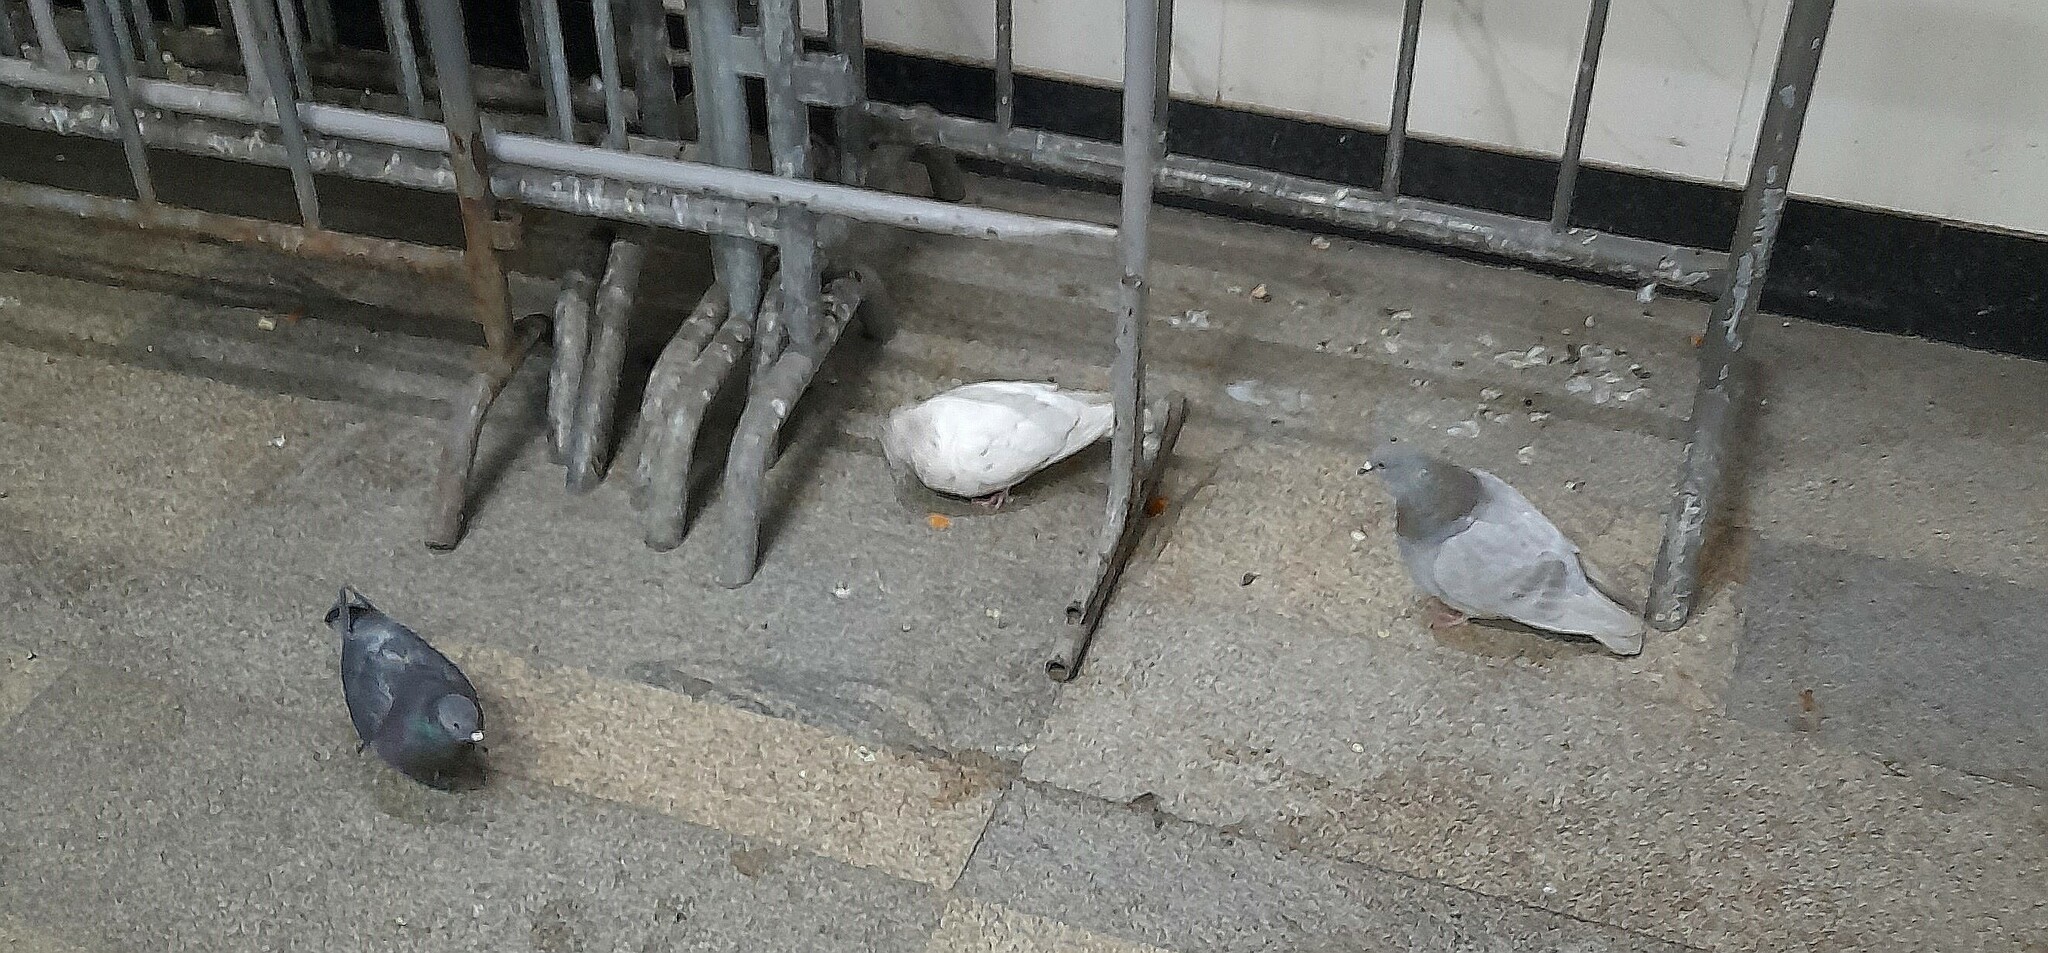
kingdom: Animalia
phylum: Chordata
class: Aves
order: Columbiformes
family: Columbidae
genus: Columba
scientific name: Columba livia
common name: Rock pigeon
